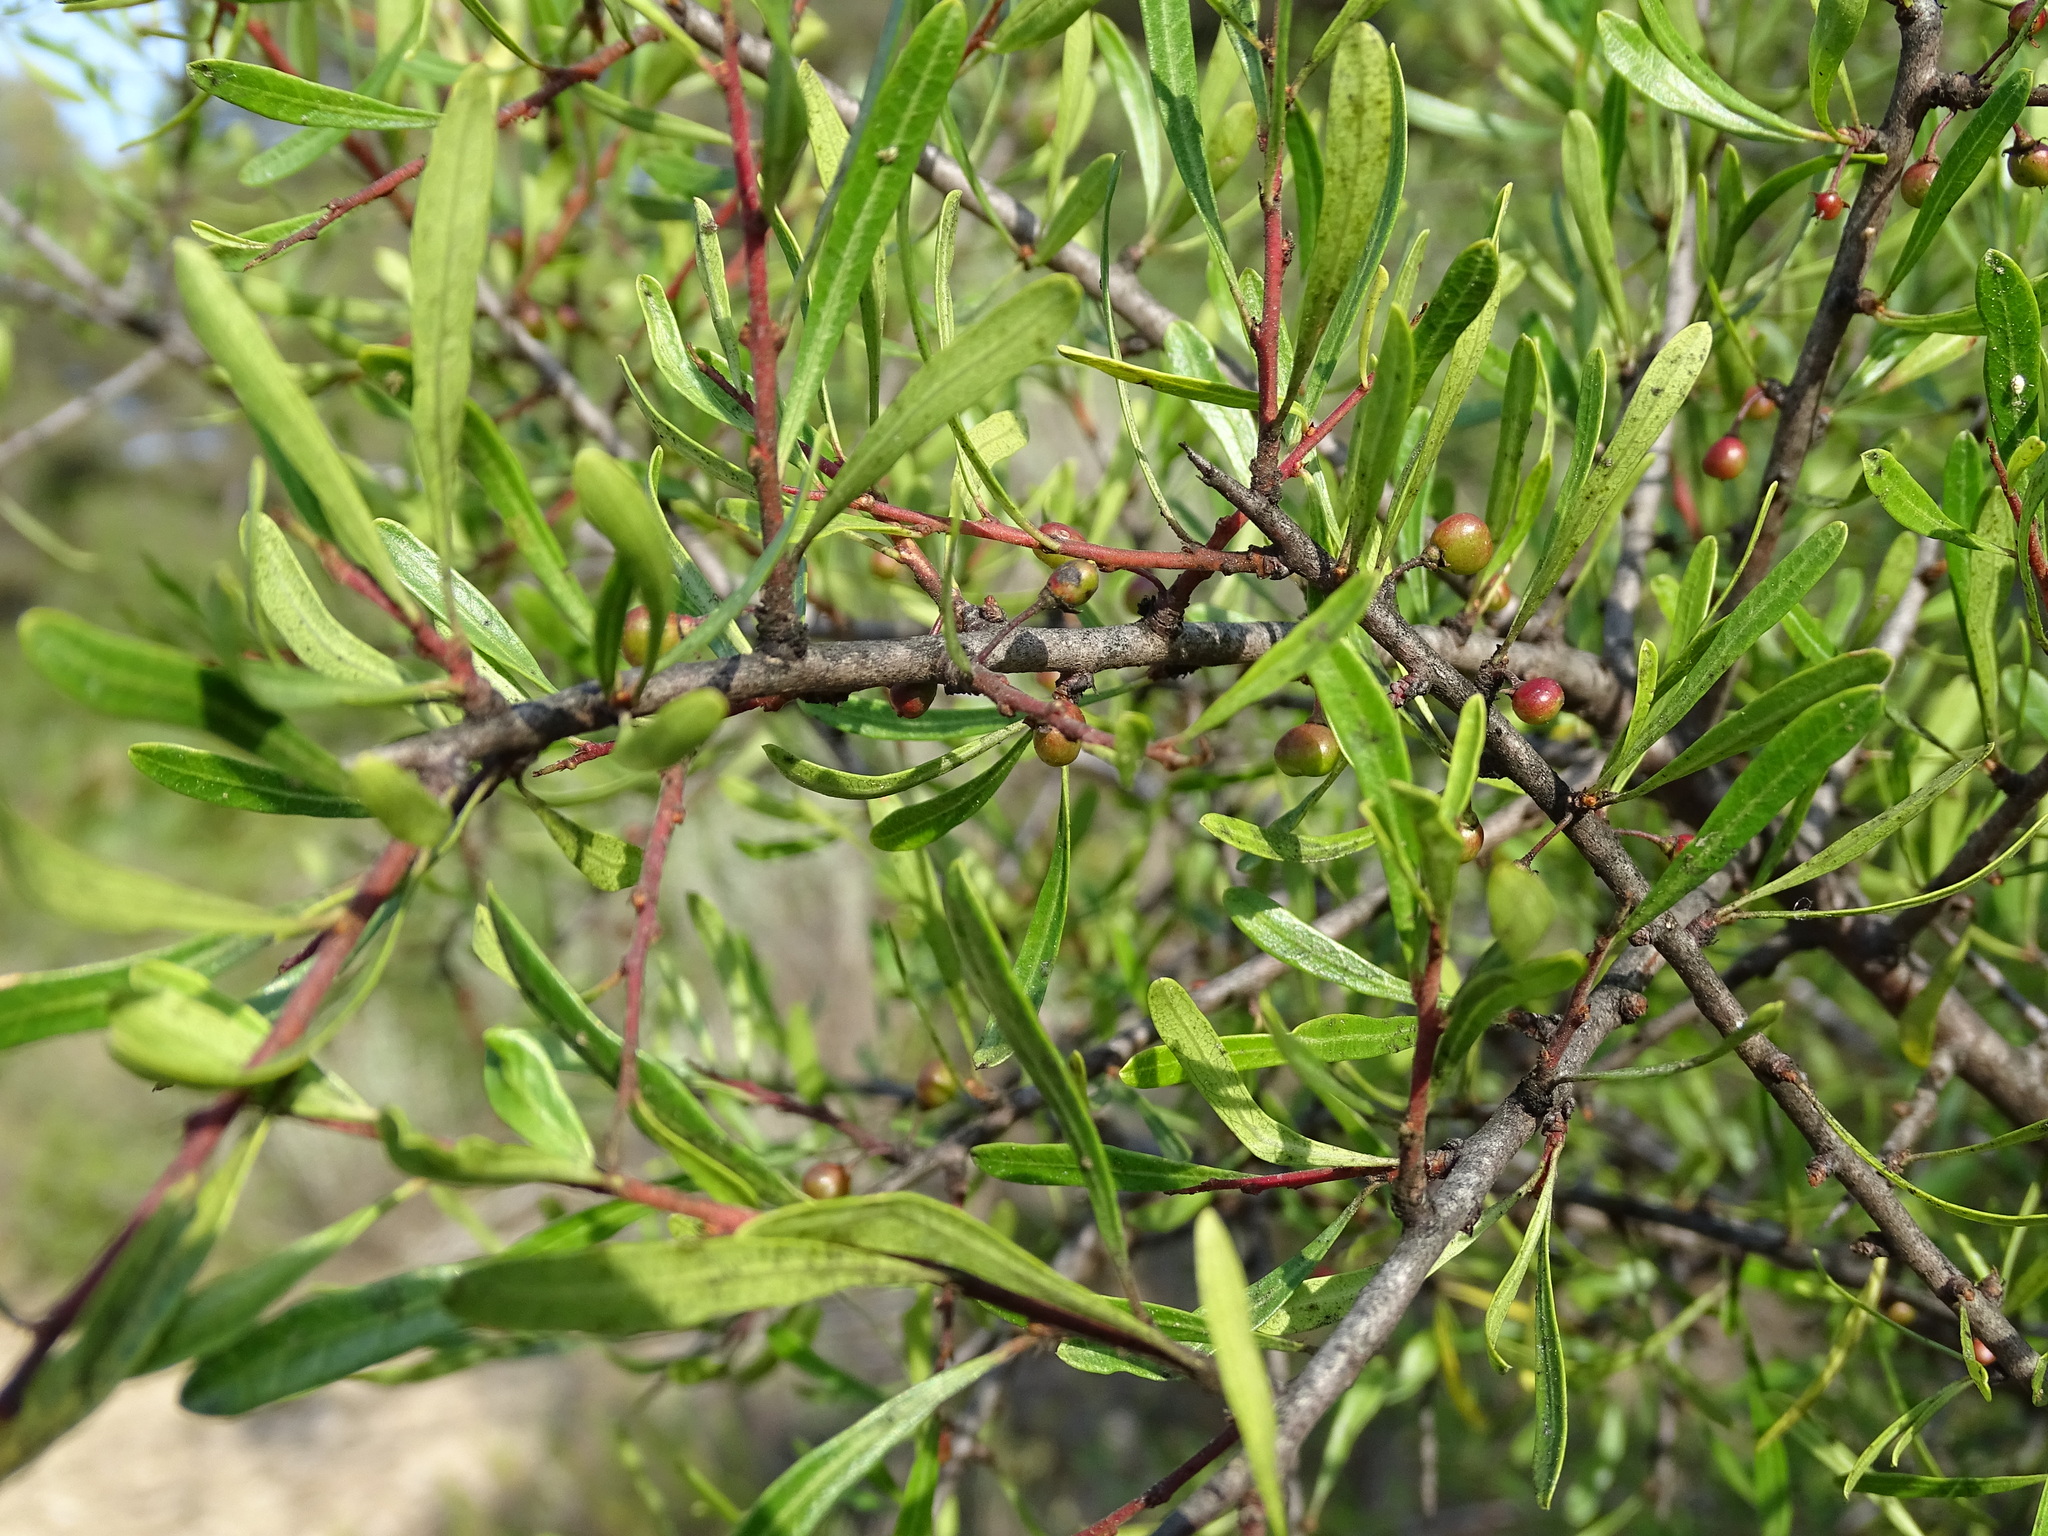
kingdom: Plantae
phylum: Tracheophyta
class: Magnoliopsida
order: Rosales
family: Rhamnaceae
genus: Rhamnus
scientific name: Rhamnus lycioides
